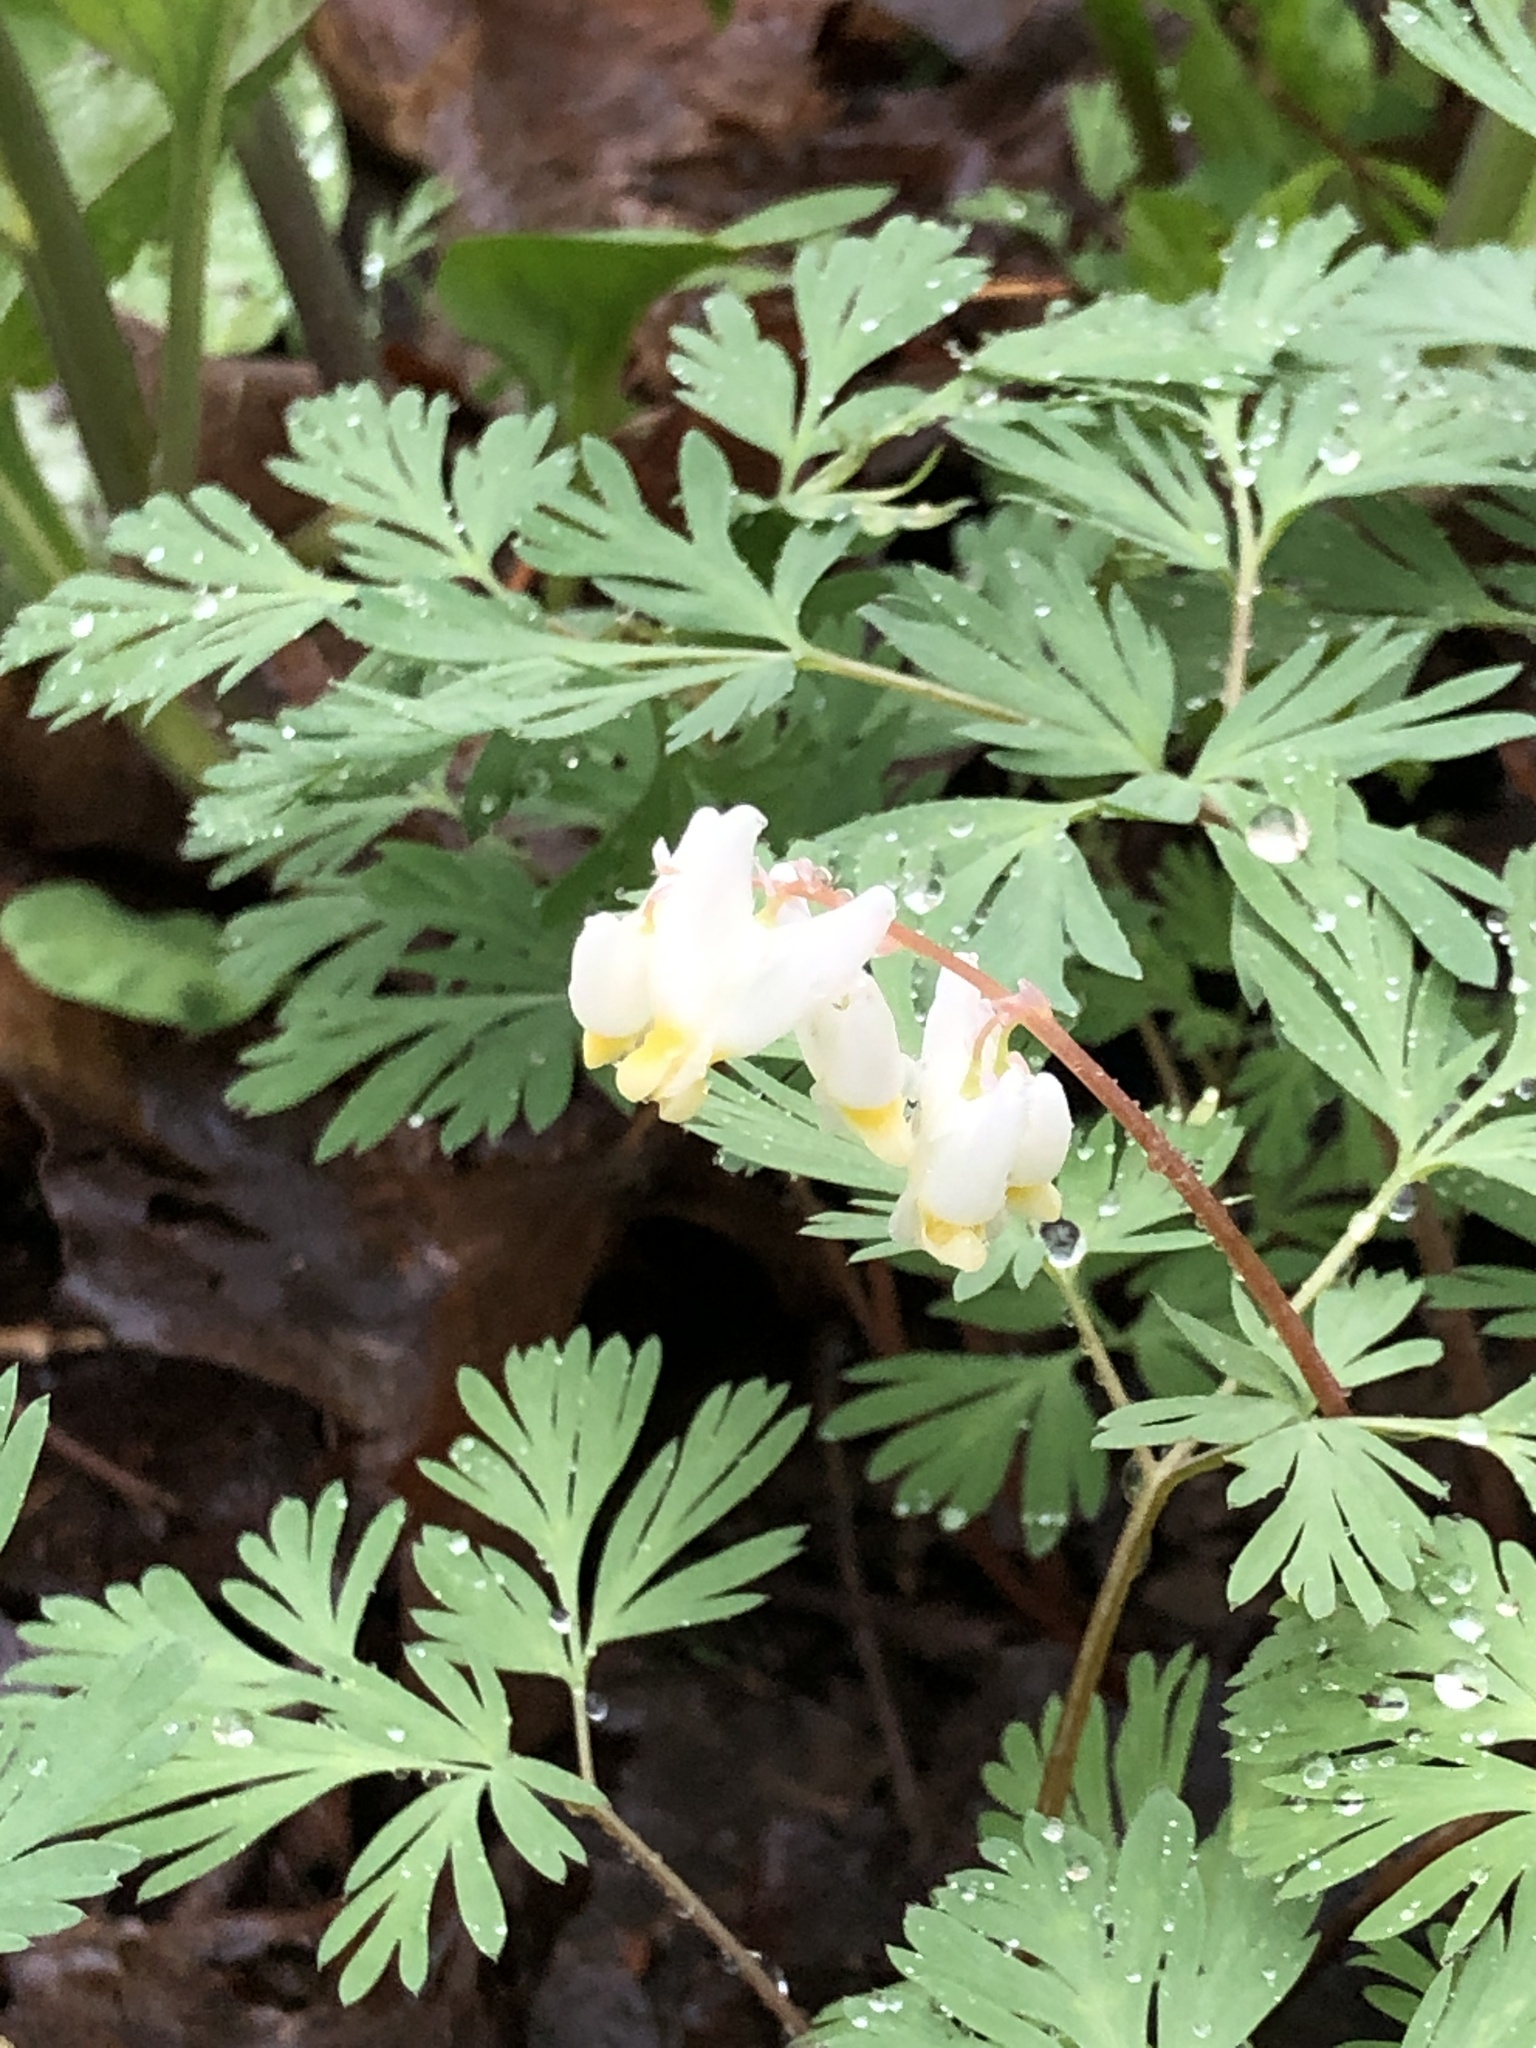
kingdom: Plantae
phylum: Tracheophyta
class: Magnoliopsida
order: Ranunculales
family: Papaveraceae
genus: Dicentra
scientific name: Dicentra cucullaria
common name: Dutchman's breeches
